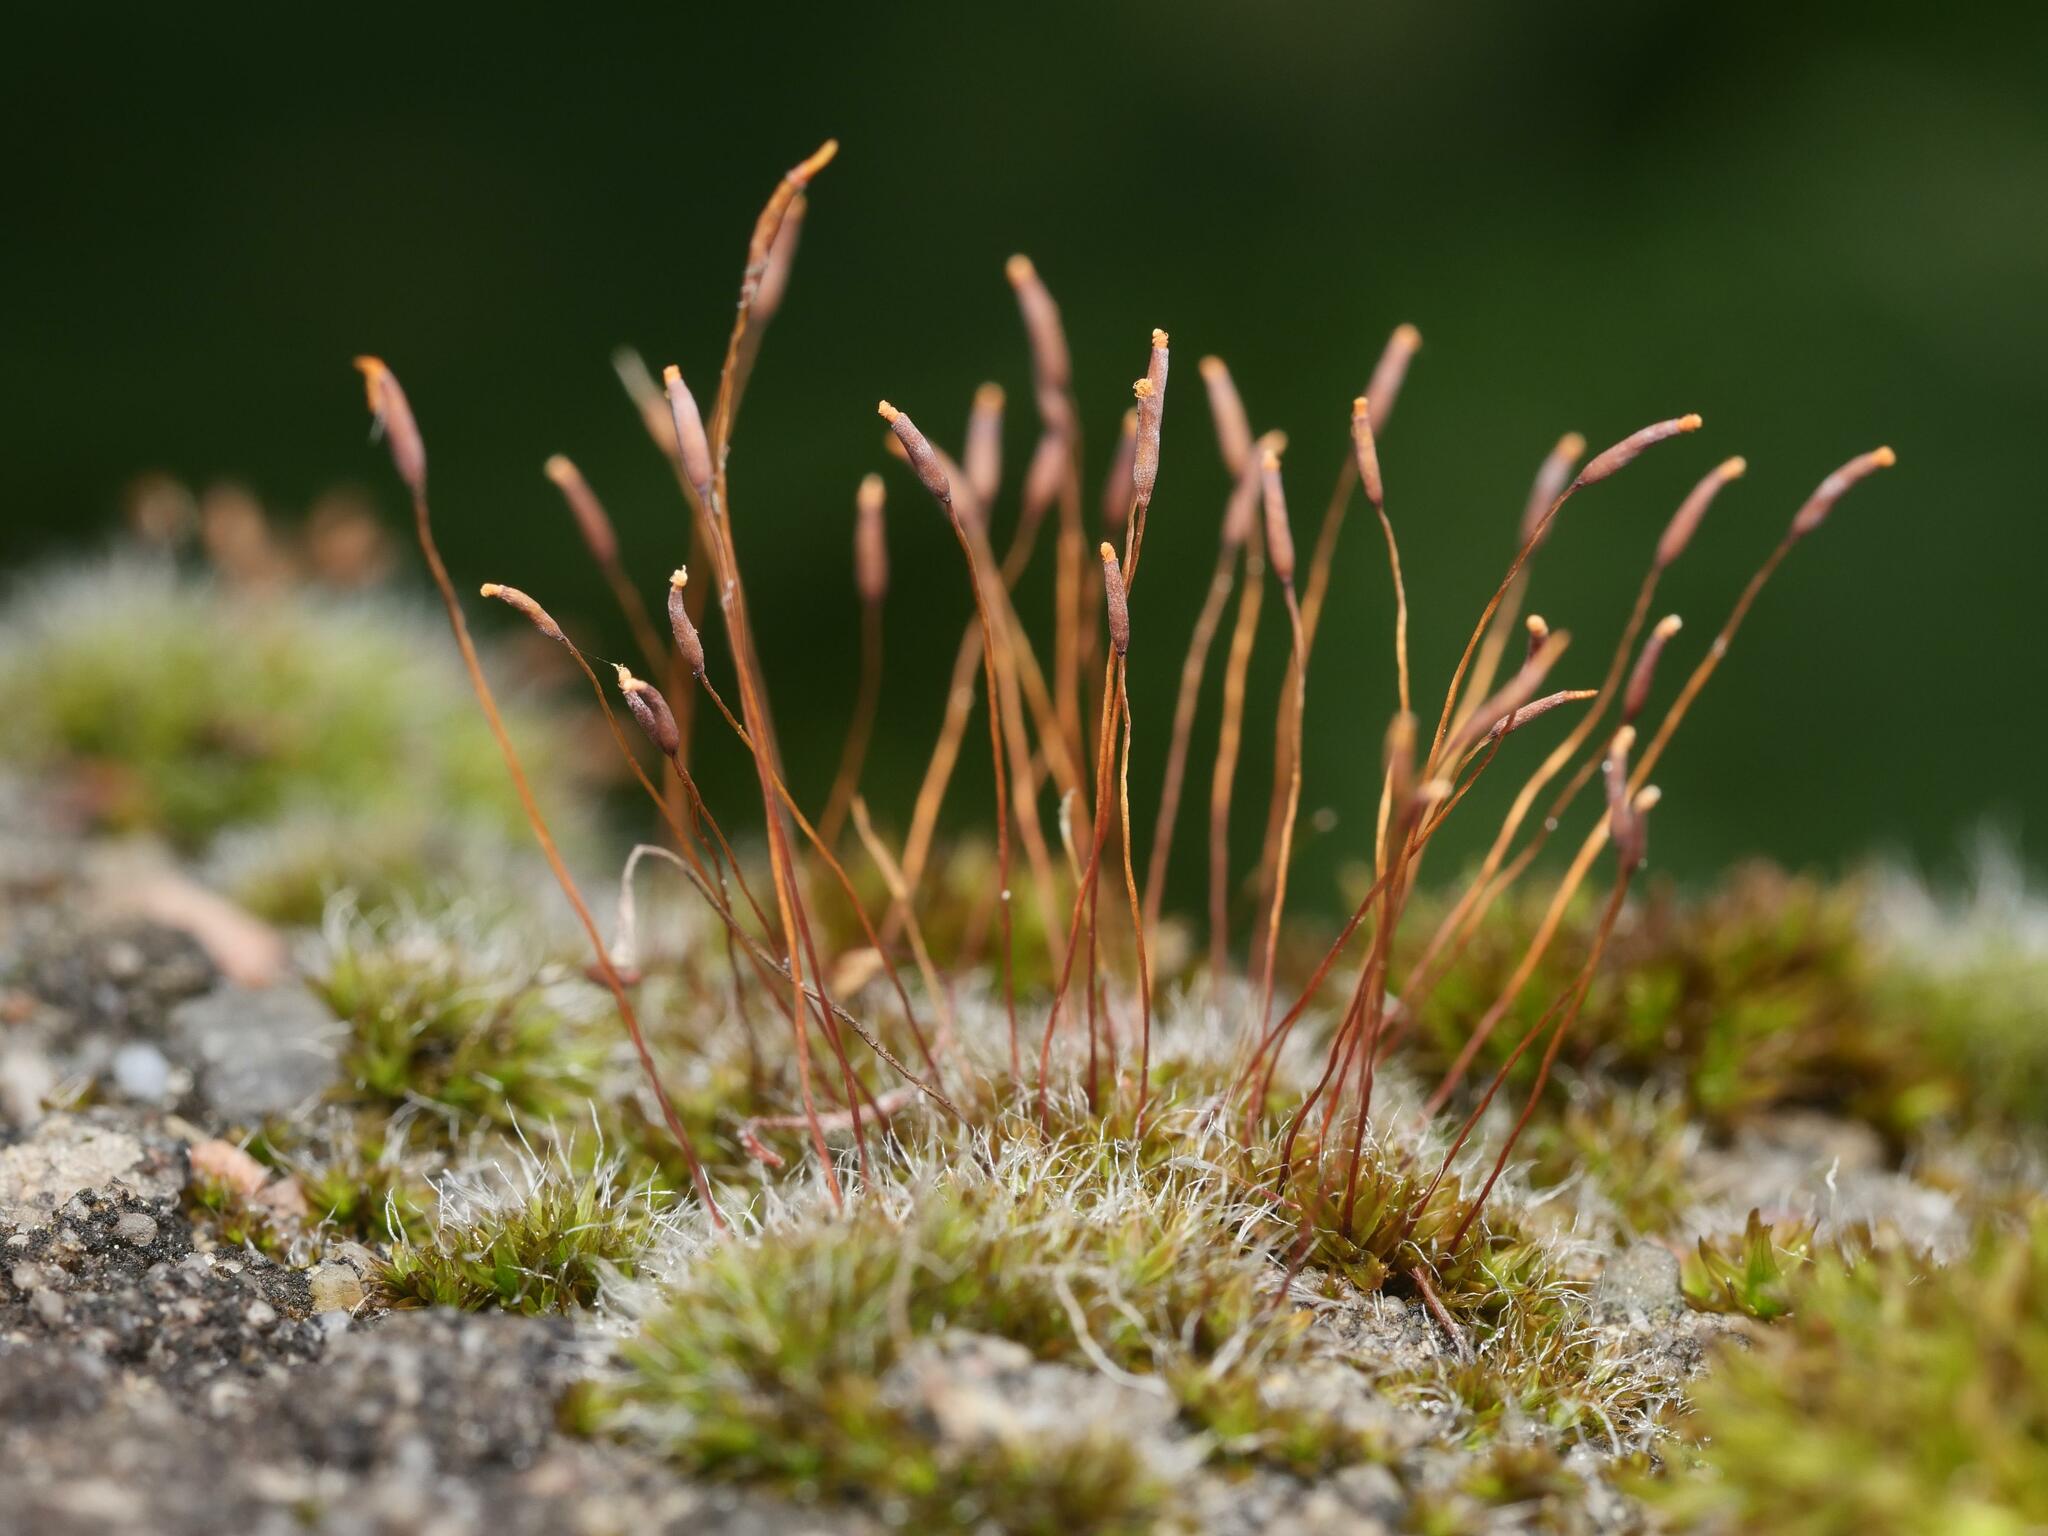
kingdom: Plantae
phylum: Bryophyta
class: Bryopsida
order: Pottiales
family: Pottiaceae
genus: Tortula
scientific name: Tortula muralis
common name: Wall screw-moss
